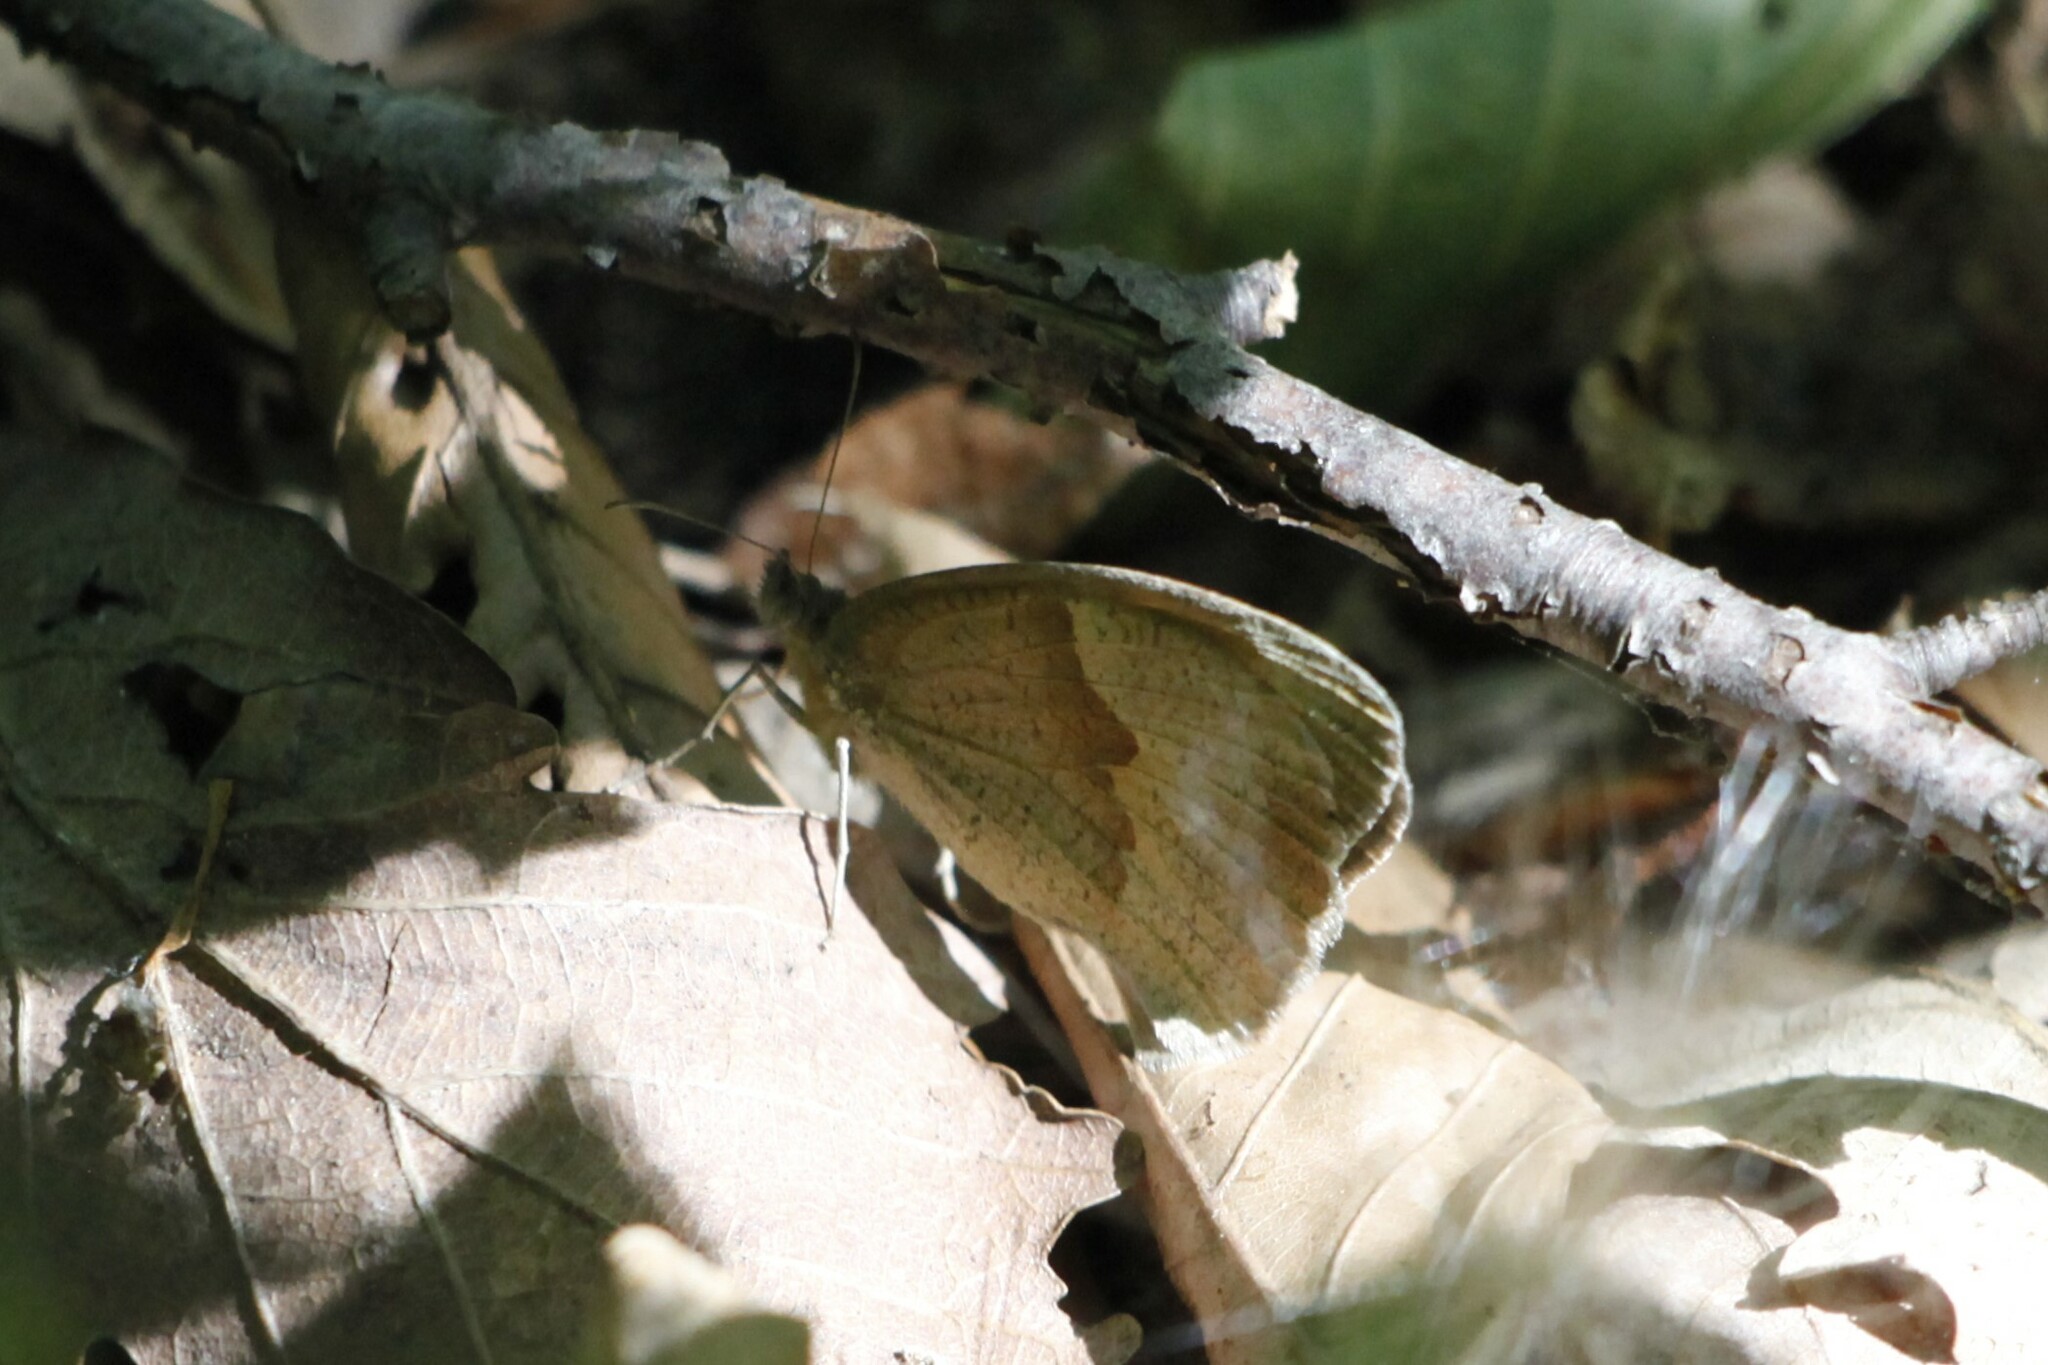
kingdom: Animalia
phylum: Arthropoda
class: Insecta
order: Lepidoptera
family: Nymphalidae
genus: Maniola
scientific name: Maniola jurtina
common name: Meadow brown
